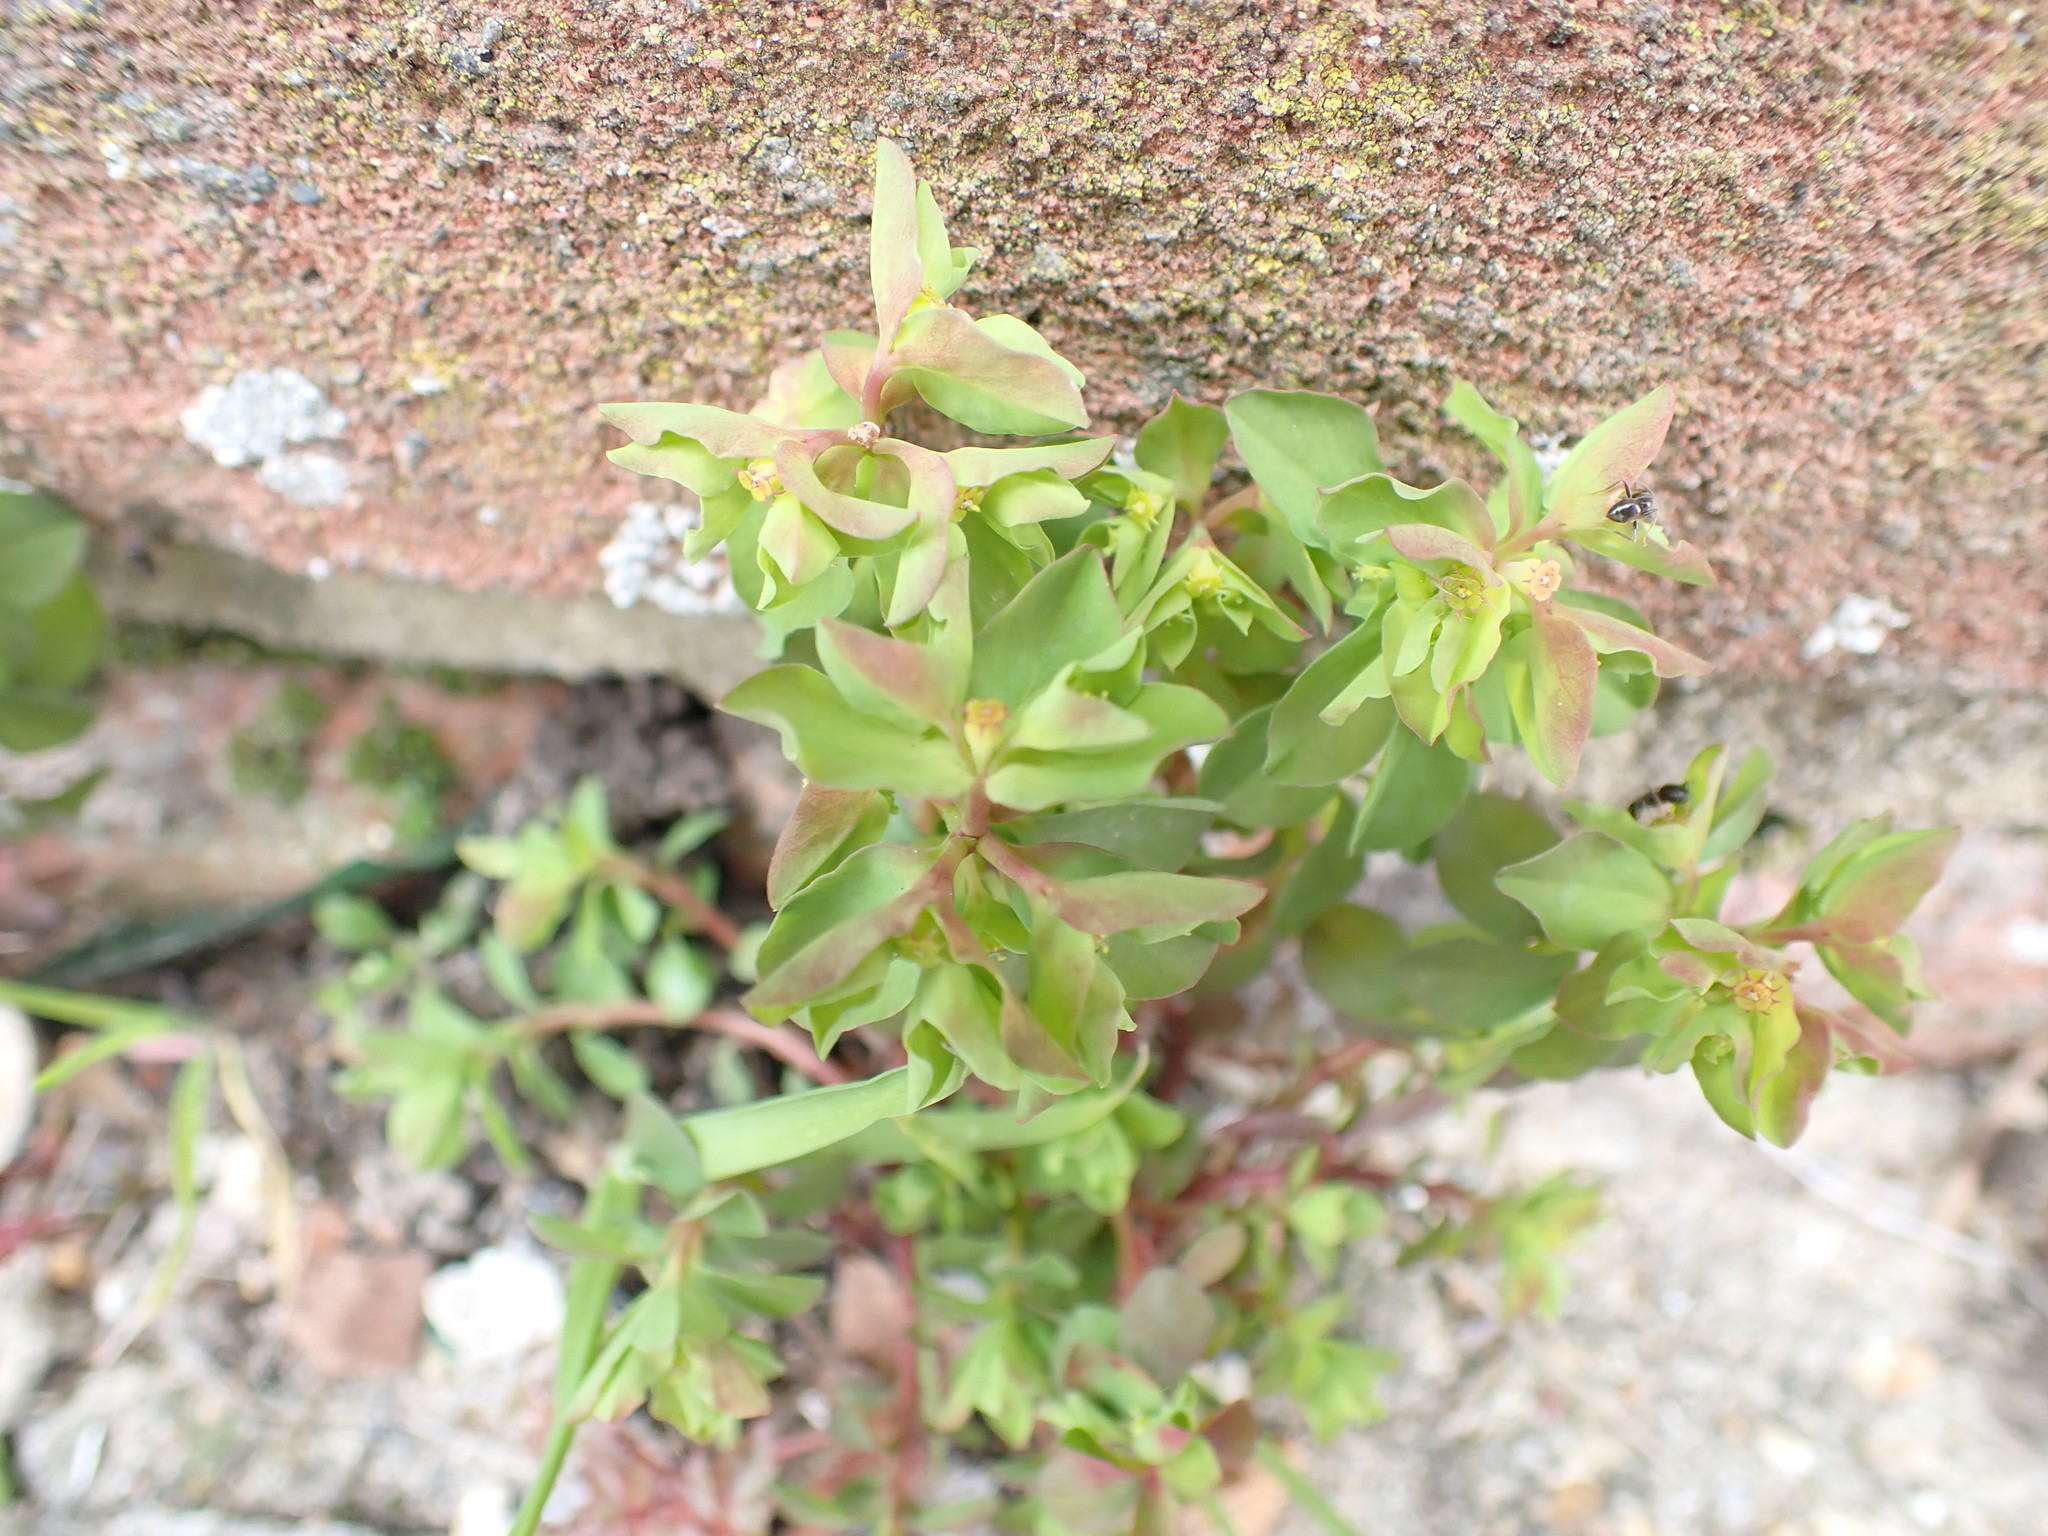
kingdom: Plantae
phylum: Tracheophyta
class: Magnoliopsida
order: Malpighiales
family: Euphorbiaceae
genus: Euphorbia
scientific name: Euphorbia peplus
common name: Petty spurge
